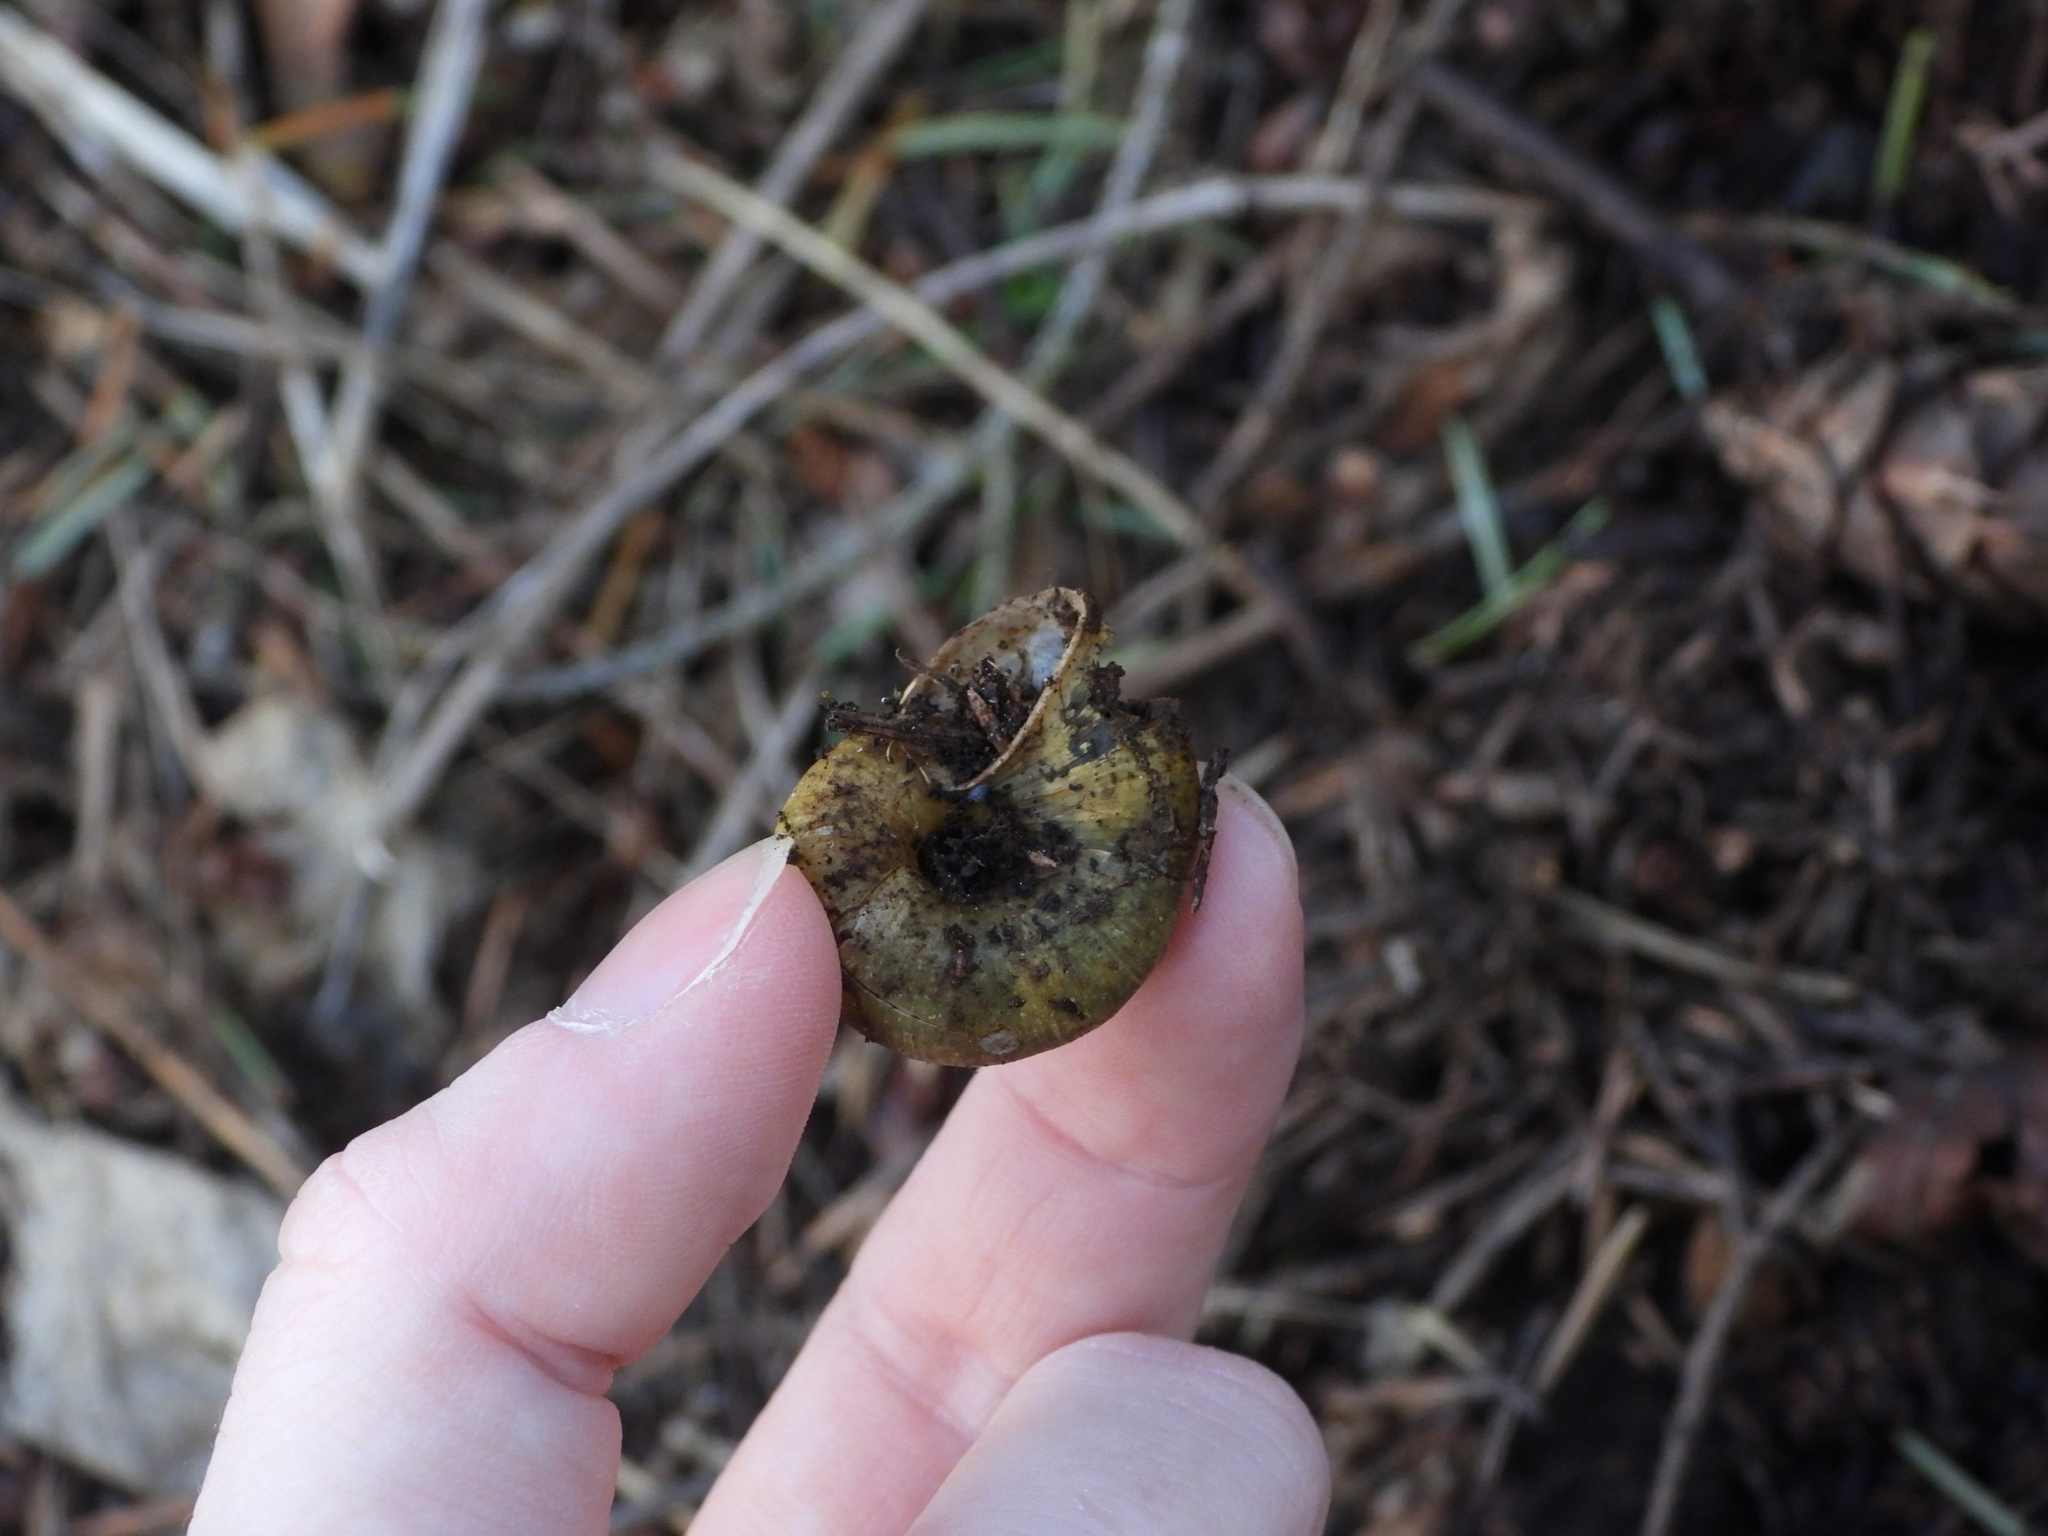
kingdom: Animalia
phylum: Mollusca
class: Gastropoda
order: Stylommatophora
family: Haplotrematidae
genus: Haplotrema
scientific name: Haplotrema vancouverense
